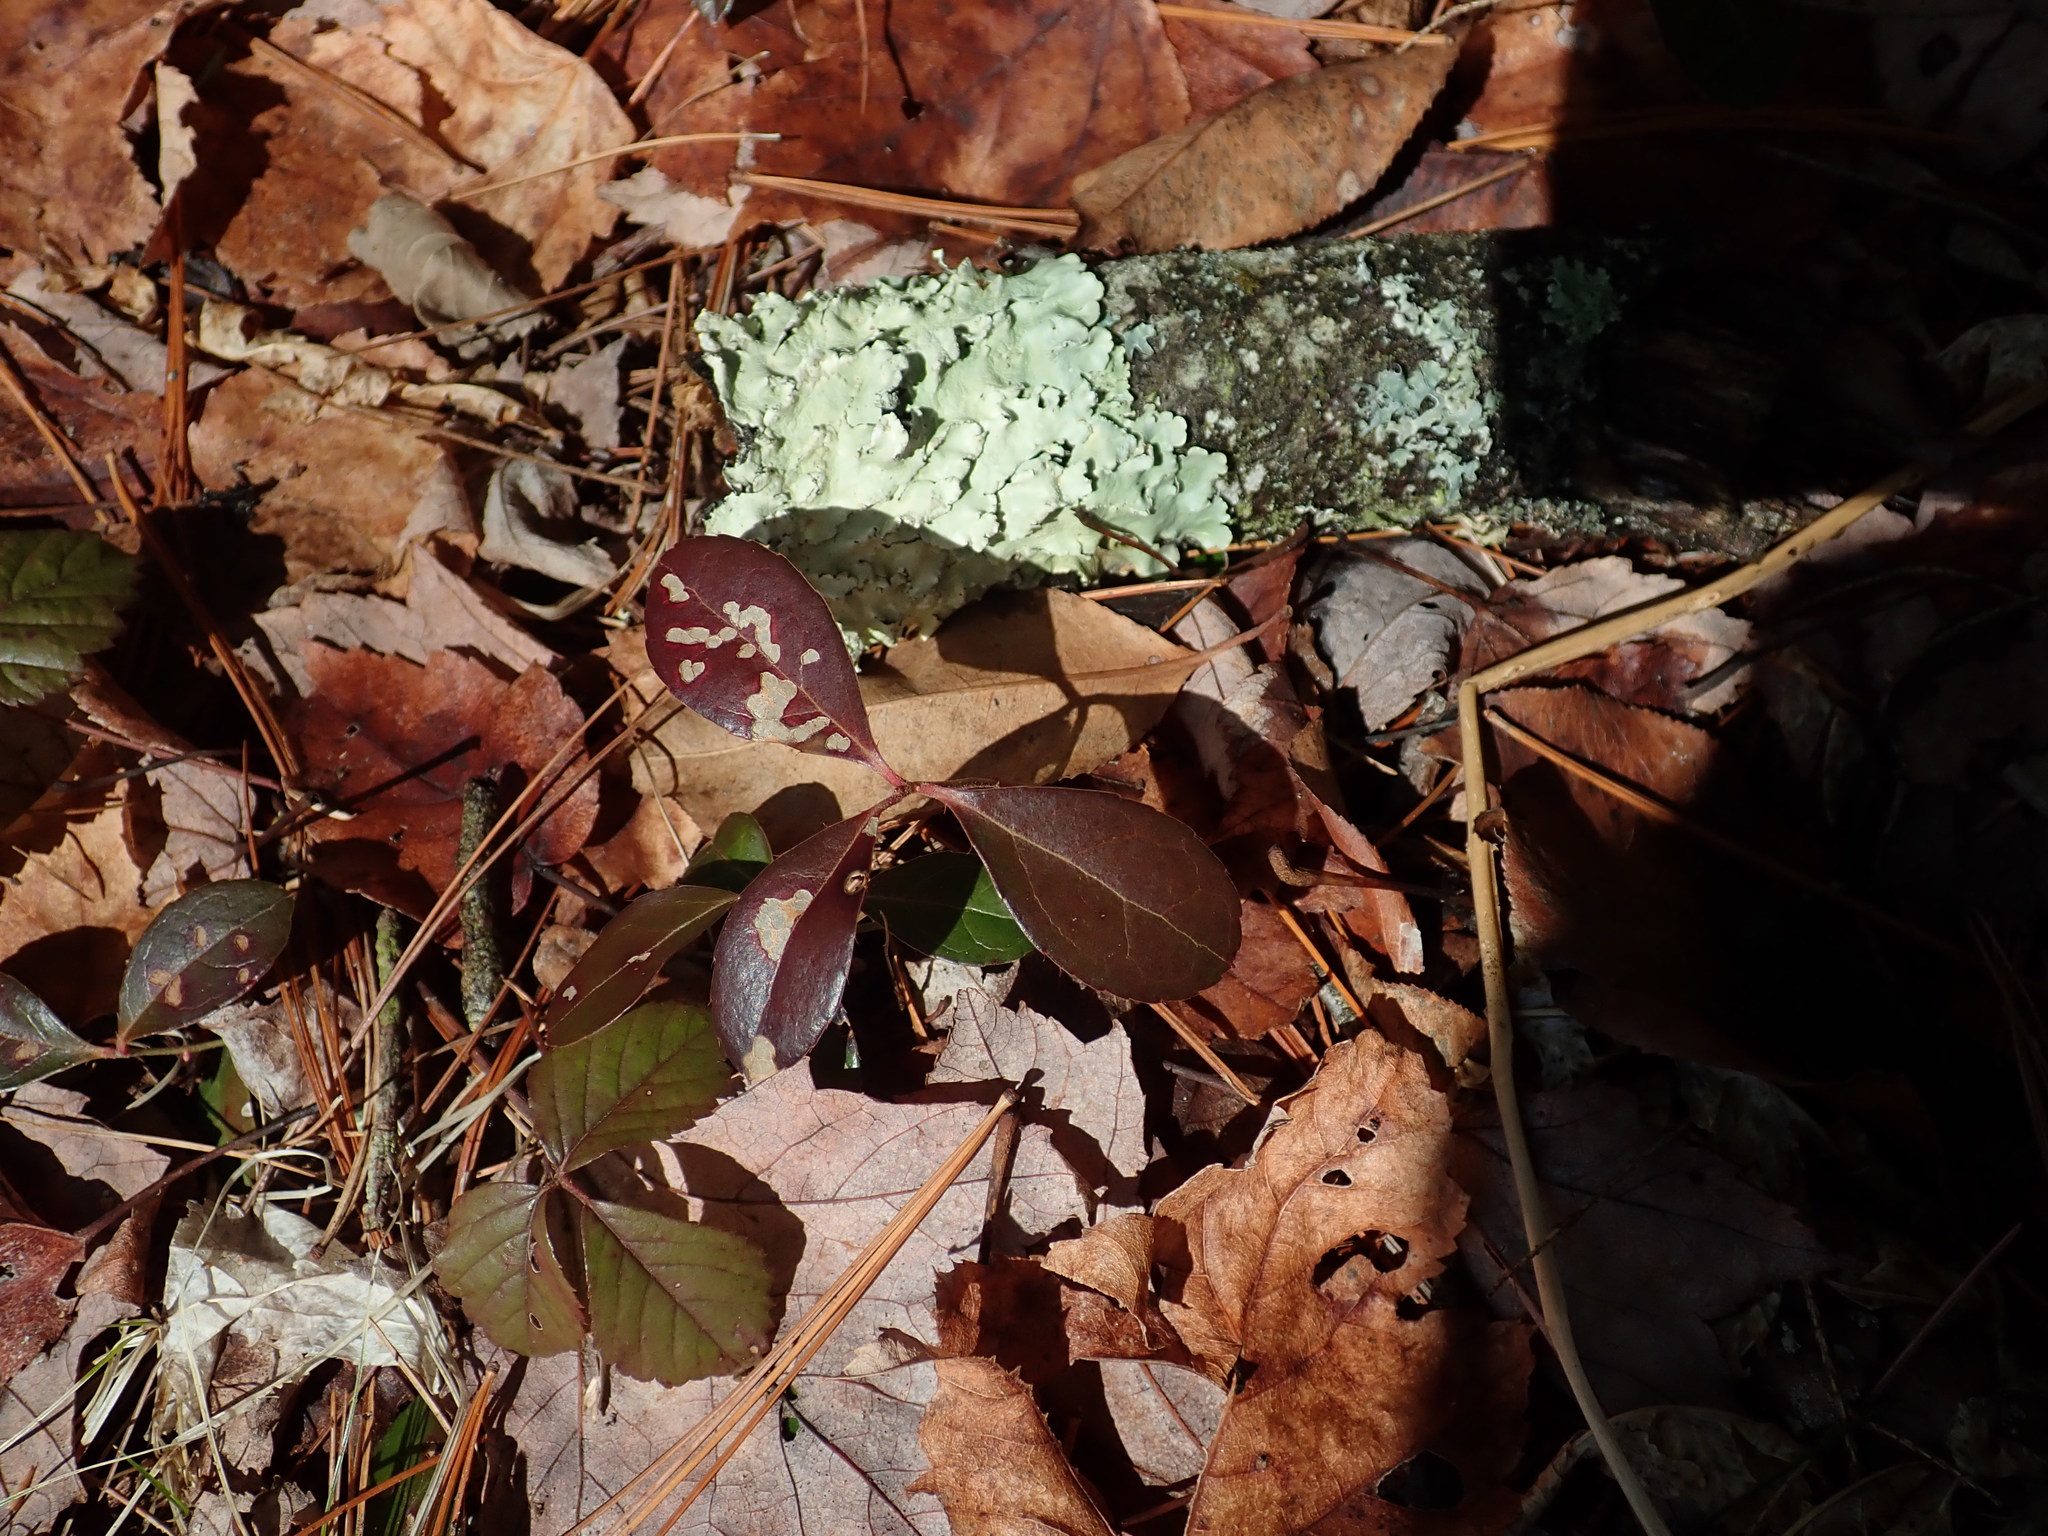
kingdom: Plantae
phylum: Tracheophyta
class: Magnoliopsida
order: Ericales
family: Ericaceae
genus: Gaultheria
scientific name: Gaultheria procumbens
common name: Checkerberry
